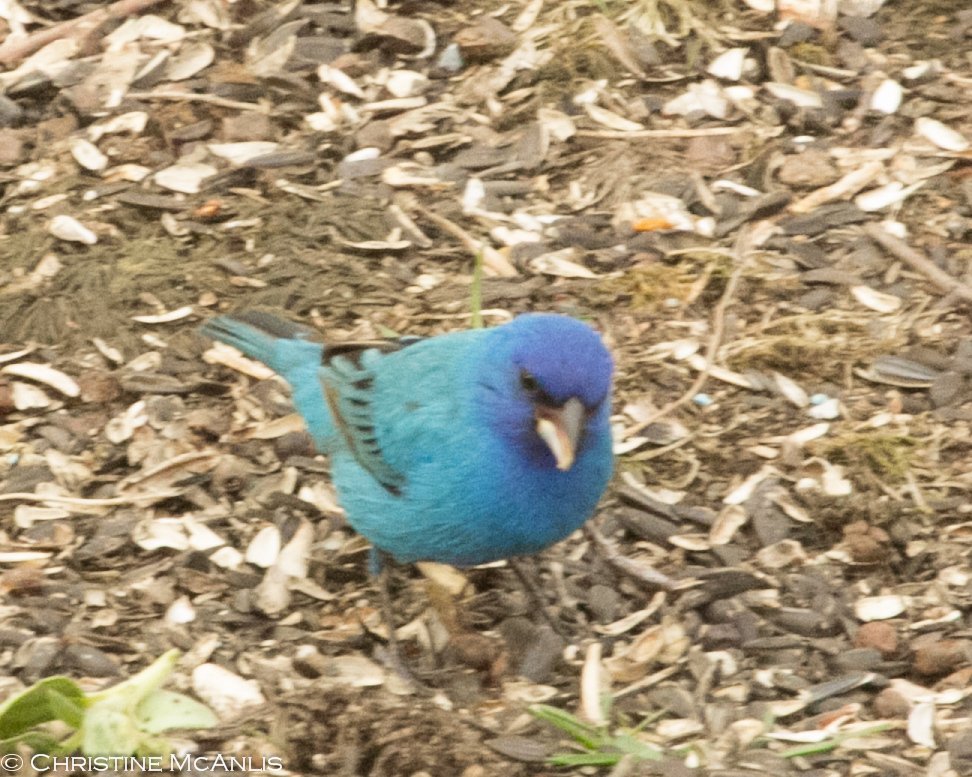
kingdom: Animalia
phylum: Chordata
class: Aves
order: Passeriformes
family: Cardinalidae
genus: Passerina
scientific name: Passerina cyanea
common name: Indigo bunting
